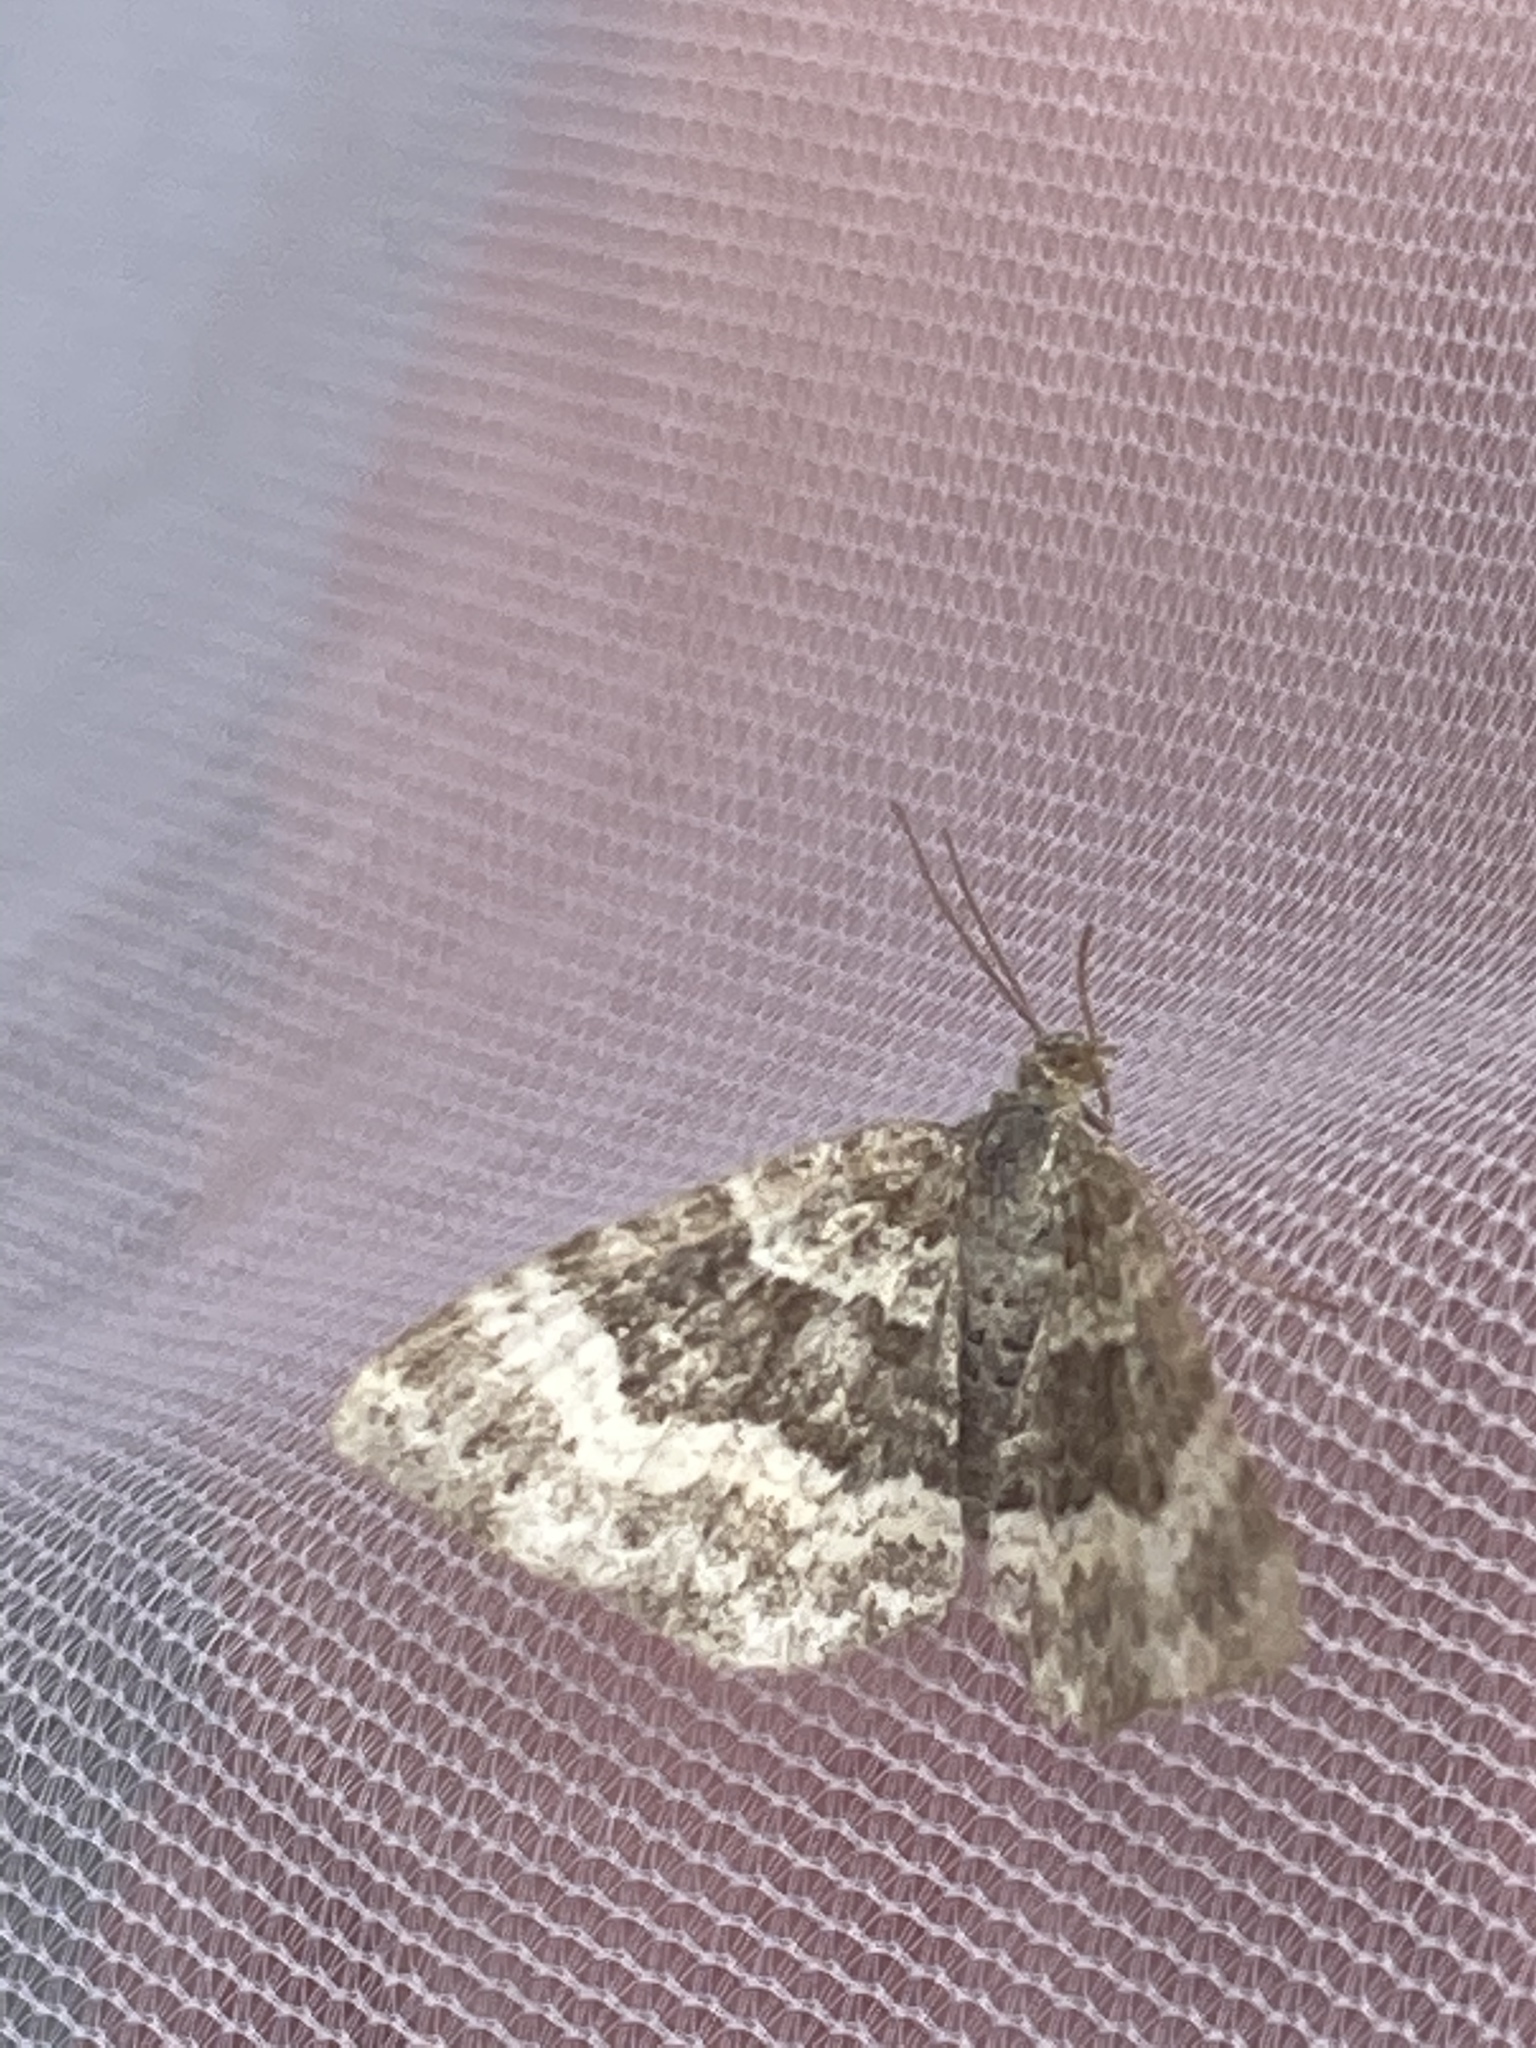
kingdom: Animalia
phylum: Arthropoda
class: Insecta
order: Lepidoptera
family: Geometridae
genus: Epirrhoe
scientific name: Epirrhoe alternata
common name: Common carpet
